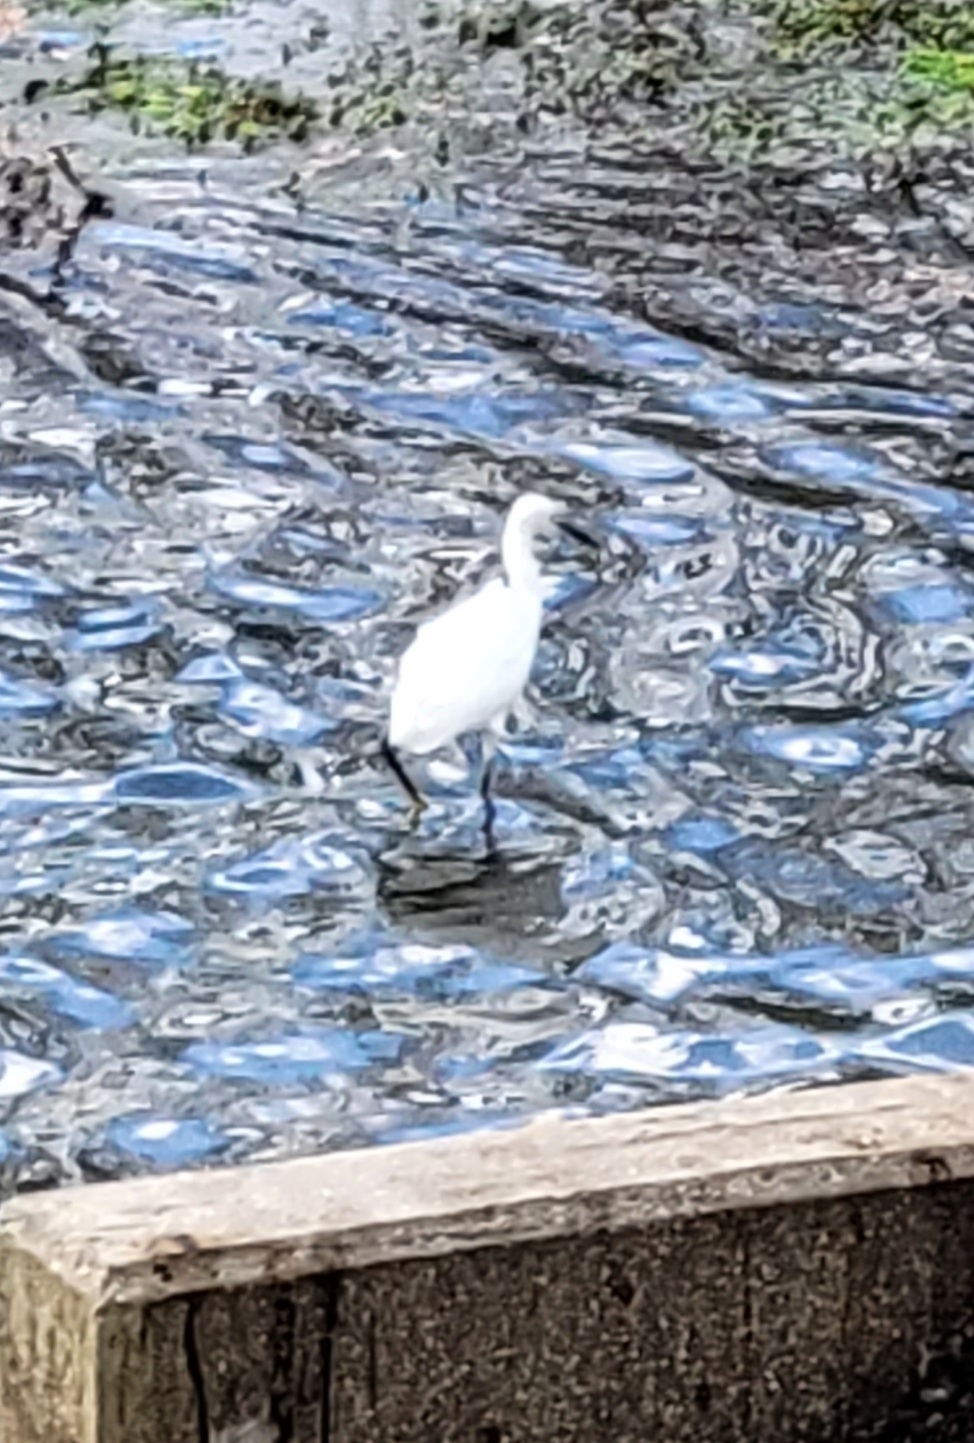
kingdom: Animalia
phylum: Chordata
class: Aves
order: Pelecaniformes
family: Ardeidae
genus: Egretta
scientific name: Egretta thula
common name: Snowy egret
